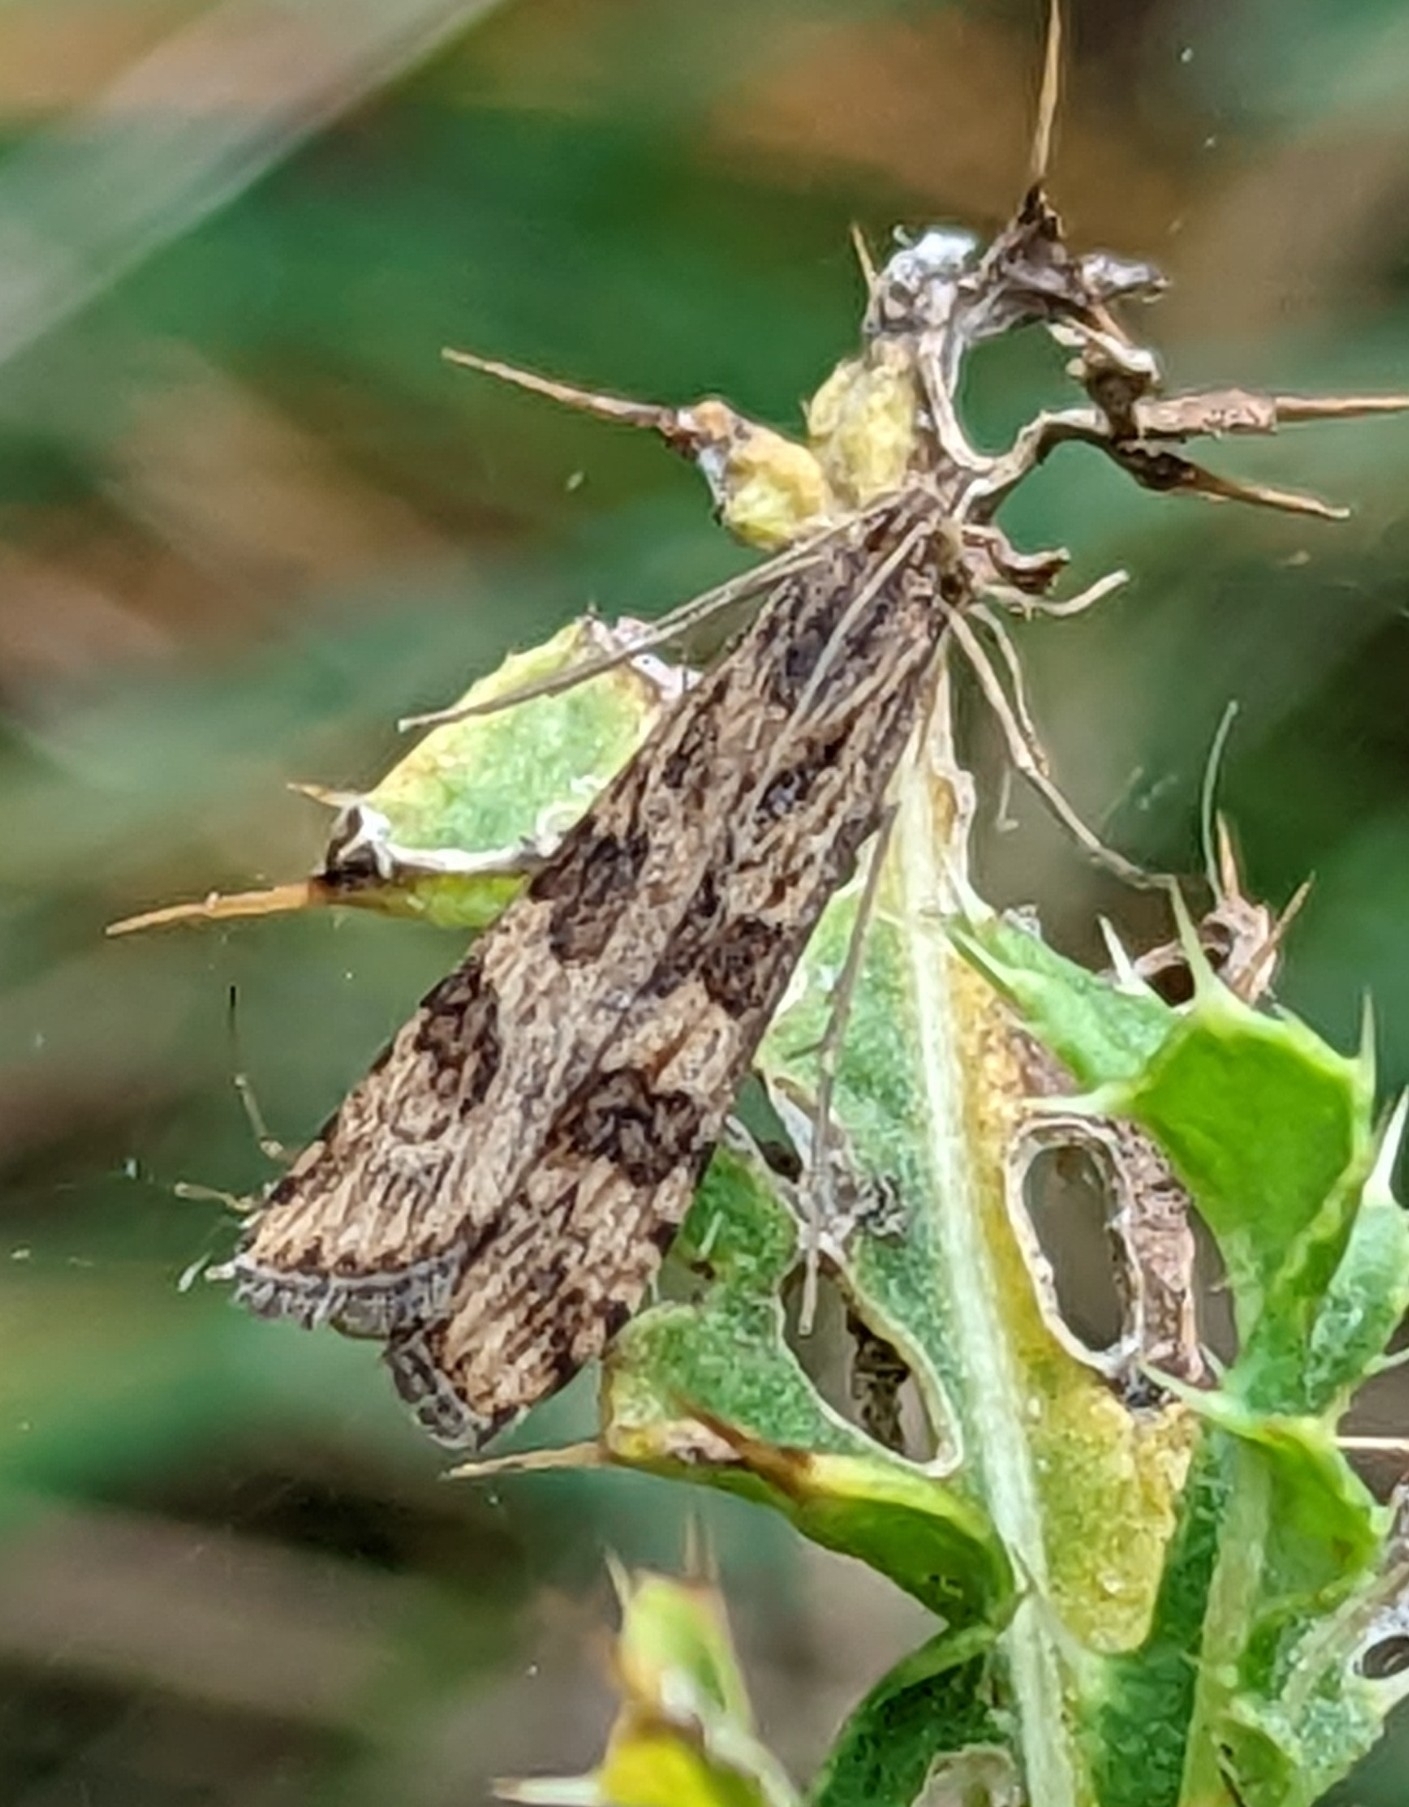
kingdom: Animalia
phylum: Arthropoda
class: Insecta
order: Lepidoptera
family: Crambidae
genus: Nomophila
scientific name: Nomophila noctuella
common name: Rush veneer
